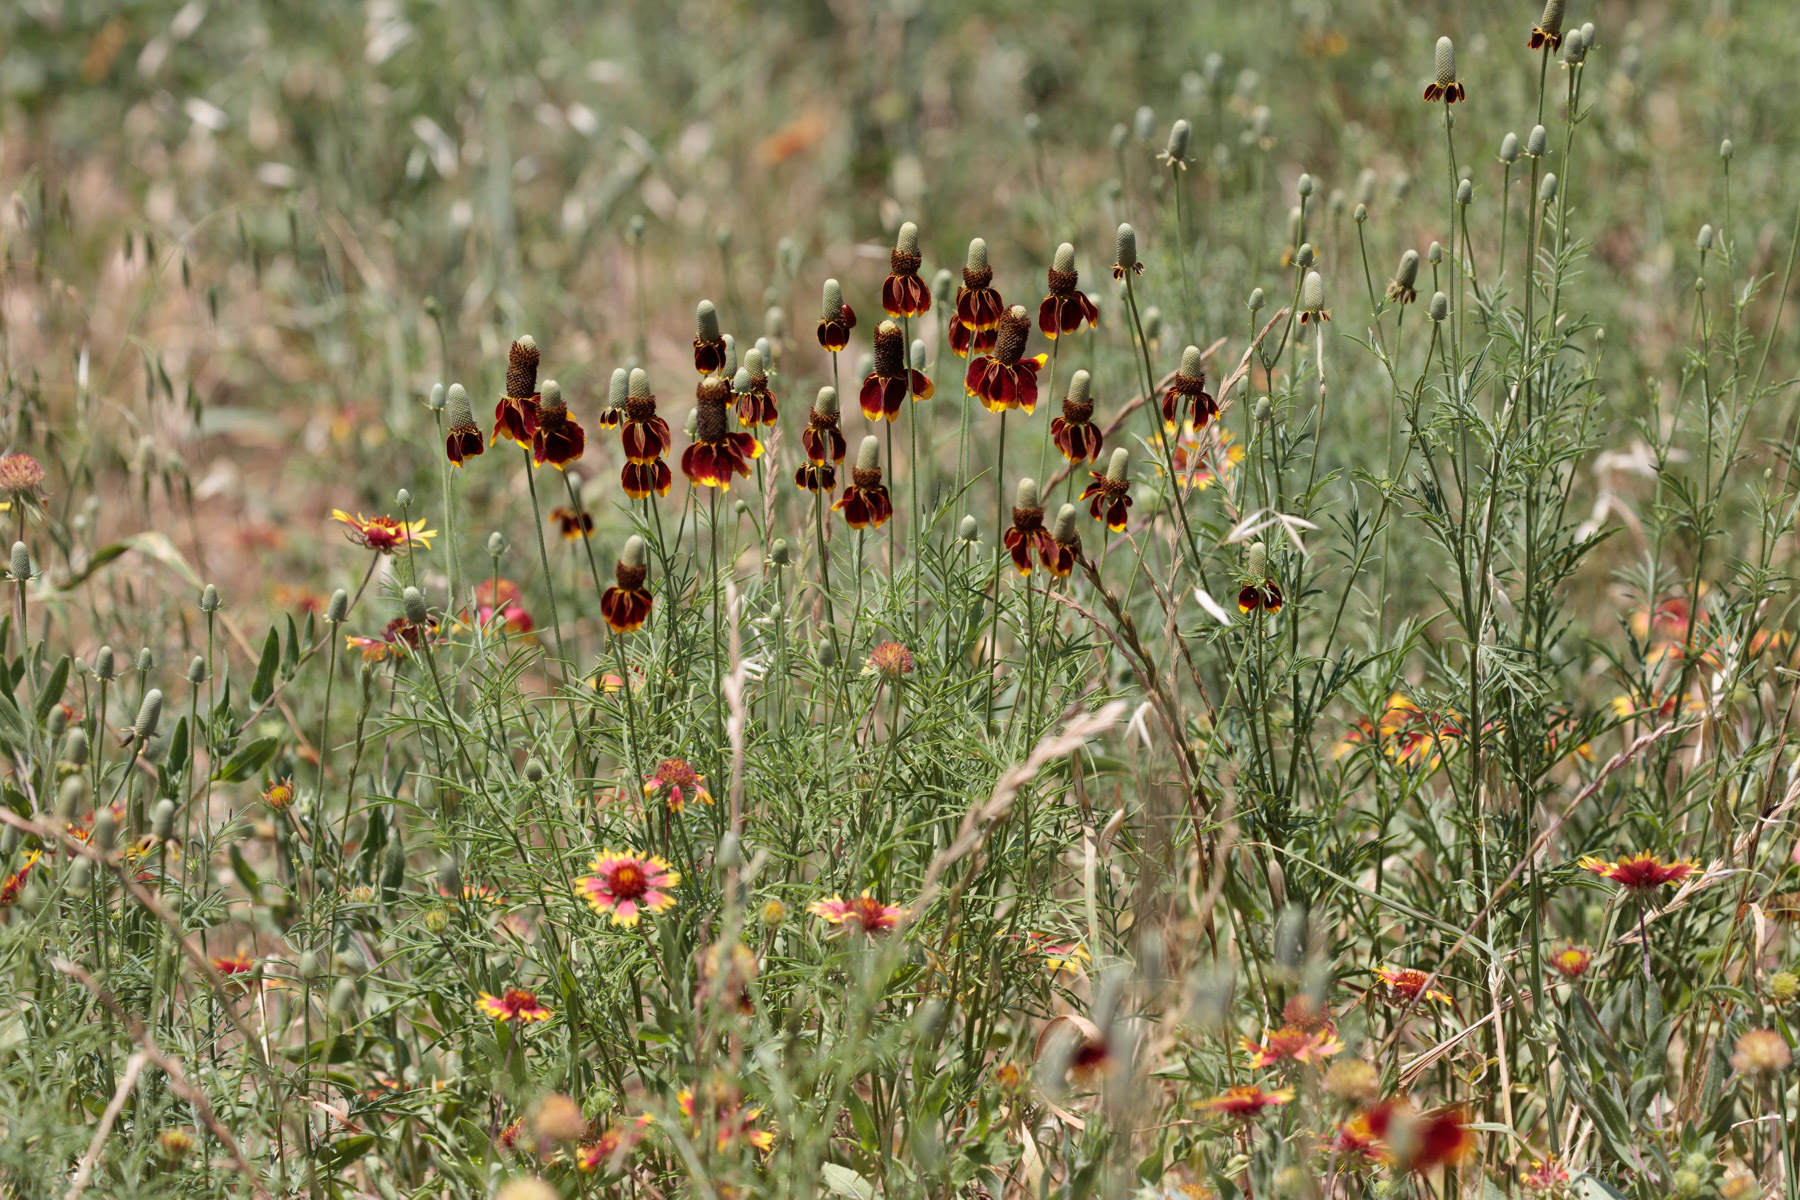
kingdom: Plantae
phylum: Tracheophyta
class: Magnoliopsida
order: Asterales
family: Asteraceae
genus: Ratibida
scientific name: Ratibida columnifera
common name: Prairie coneflower
